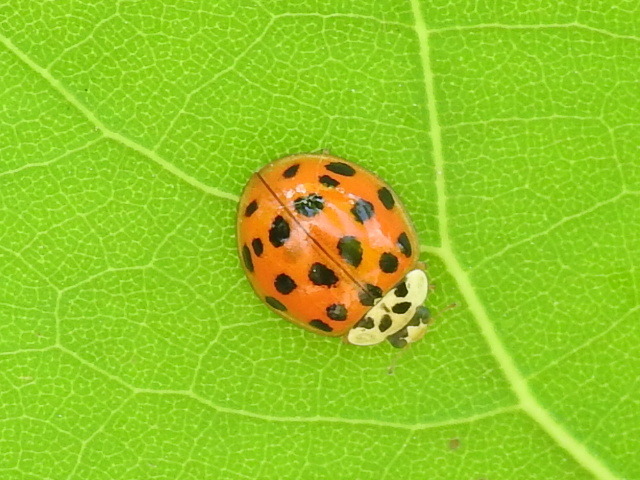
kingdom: Animalia
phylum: Arthropoda
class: Insecta
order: Coleoptera
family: Coccinellidae
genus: Harmonia
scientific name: Harmonia axyridis
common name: Harlequin ladybird
